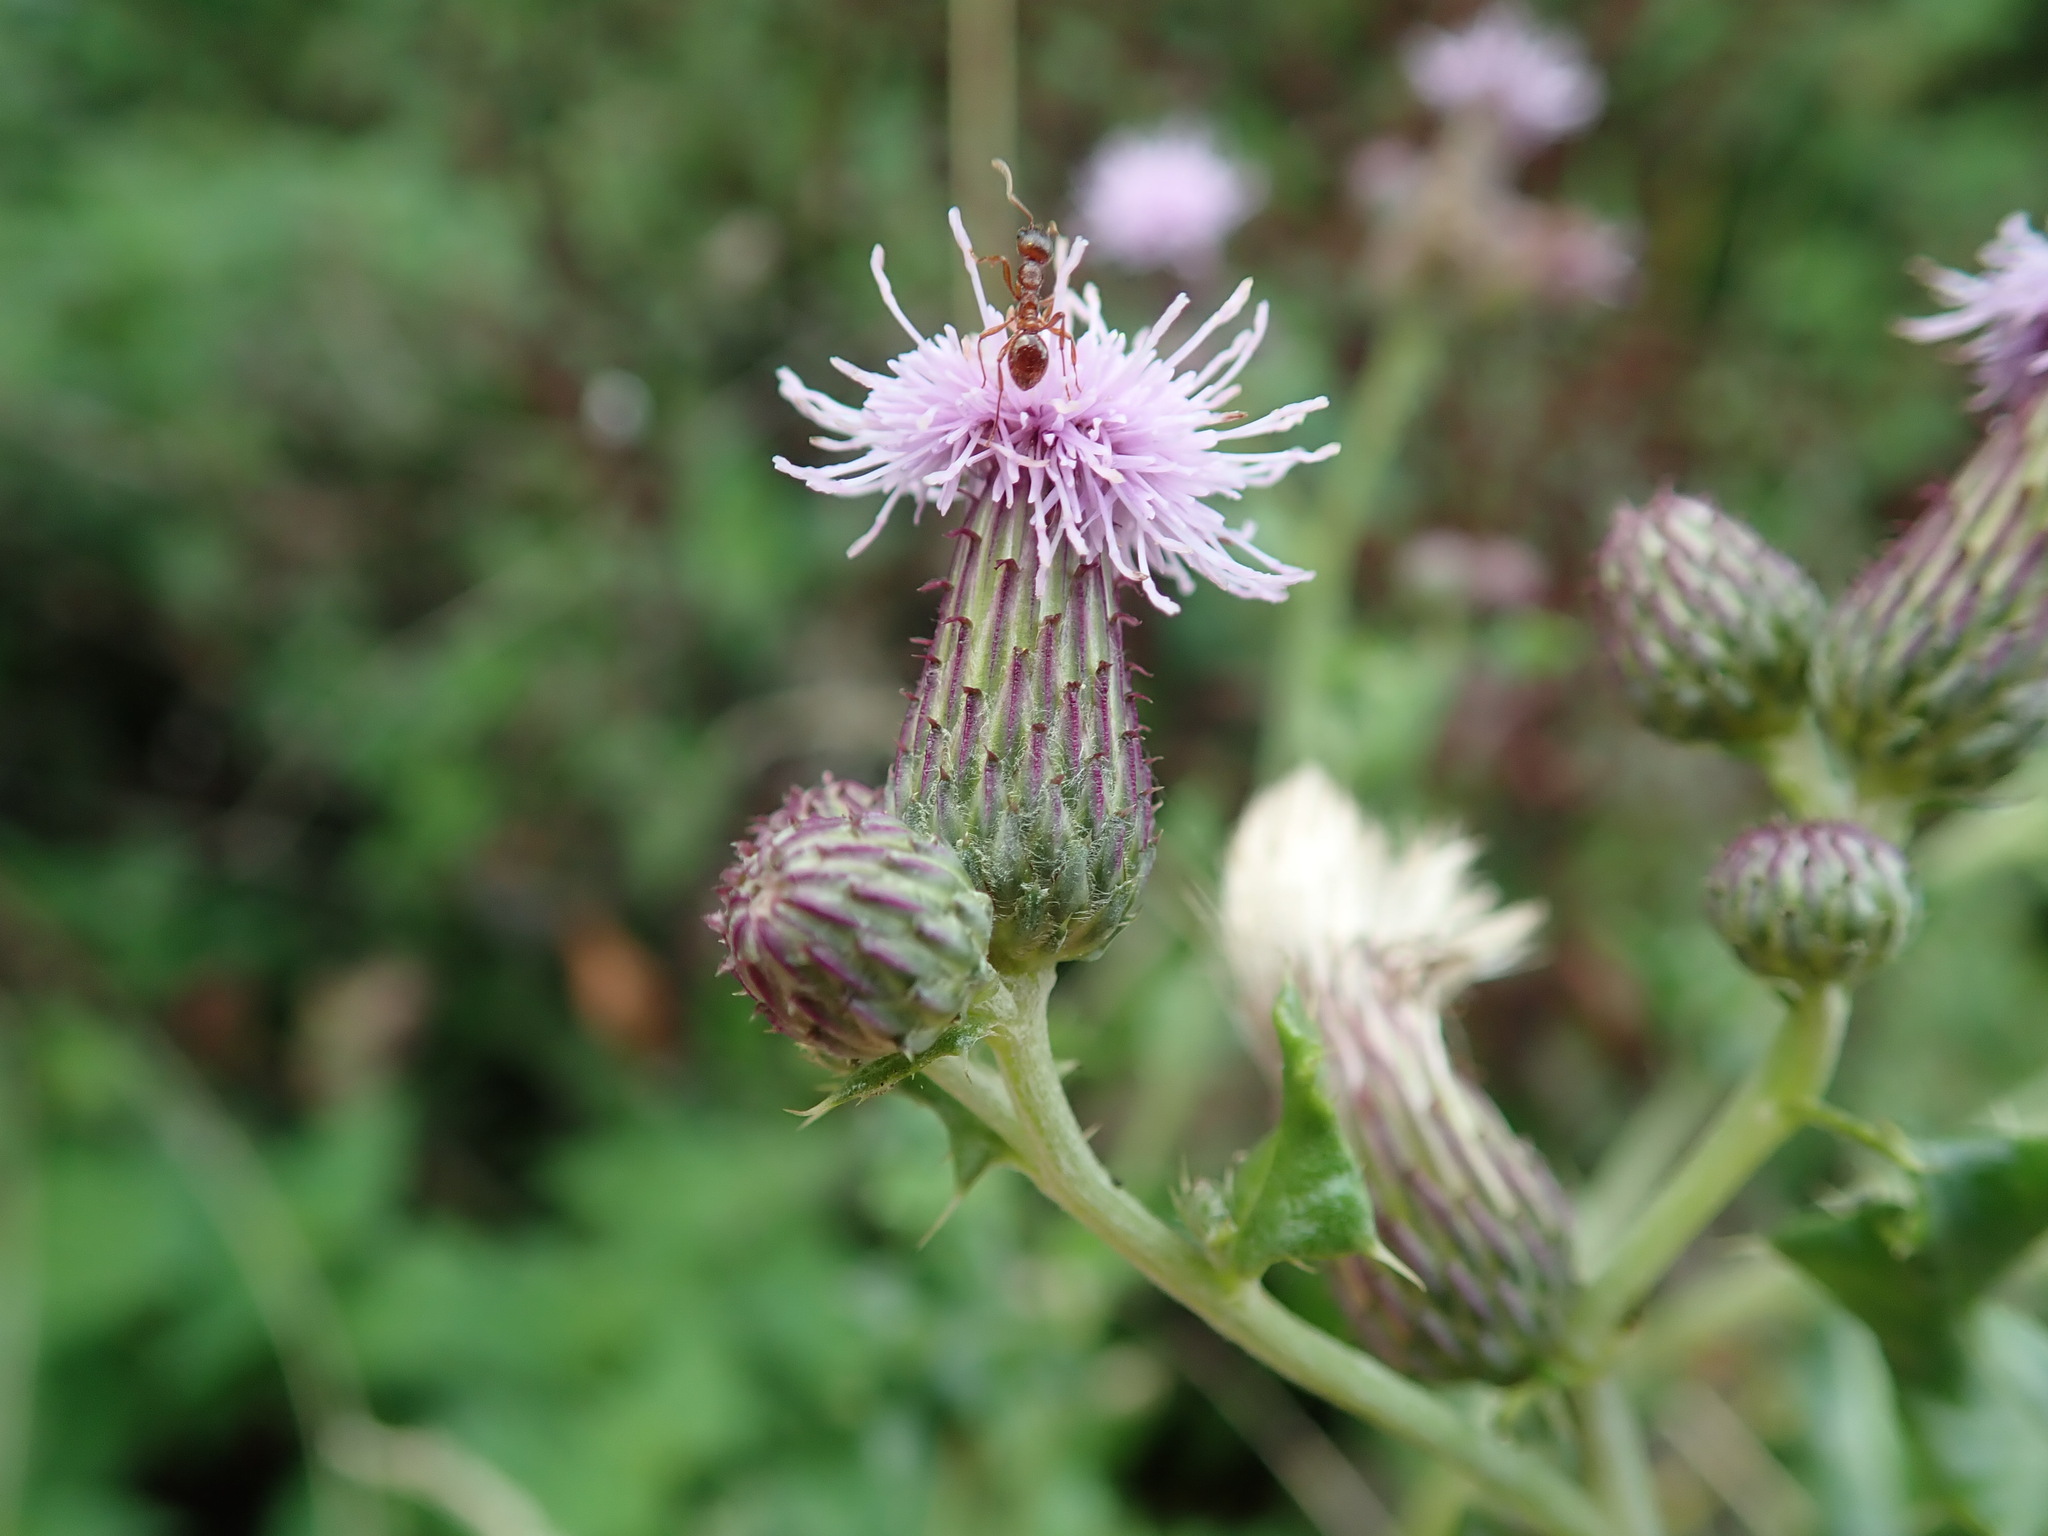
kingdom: Plantae
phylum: Tracheophyta
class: Magnoliopsida
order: Asterales
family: Asteraceae
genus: Cirsium
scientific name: Cirsium arvense
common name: Creeping thistle
